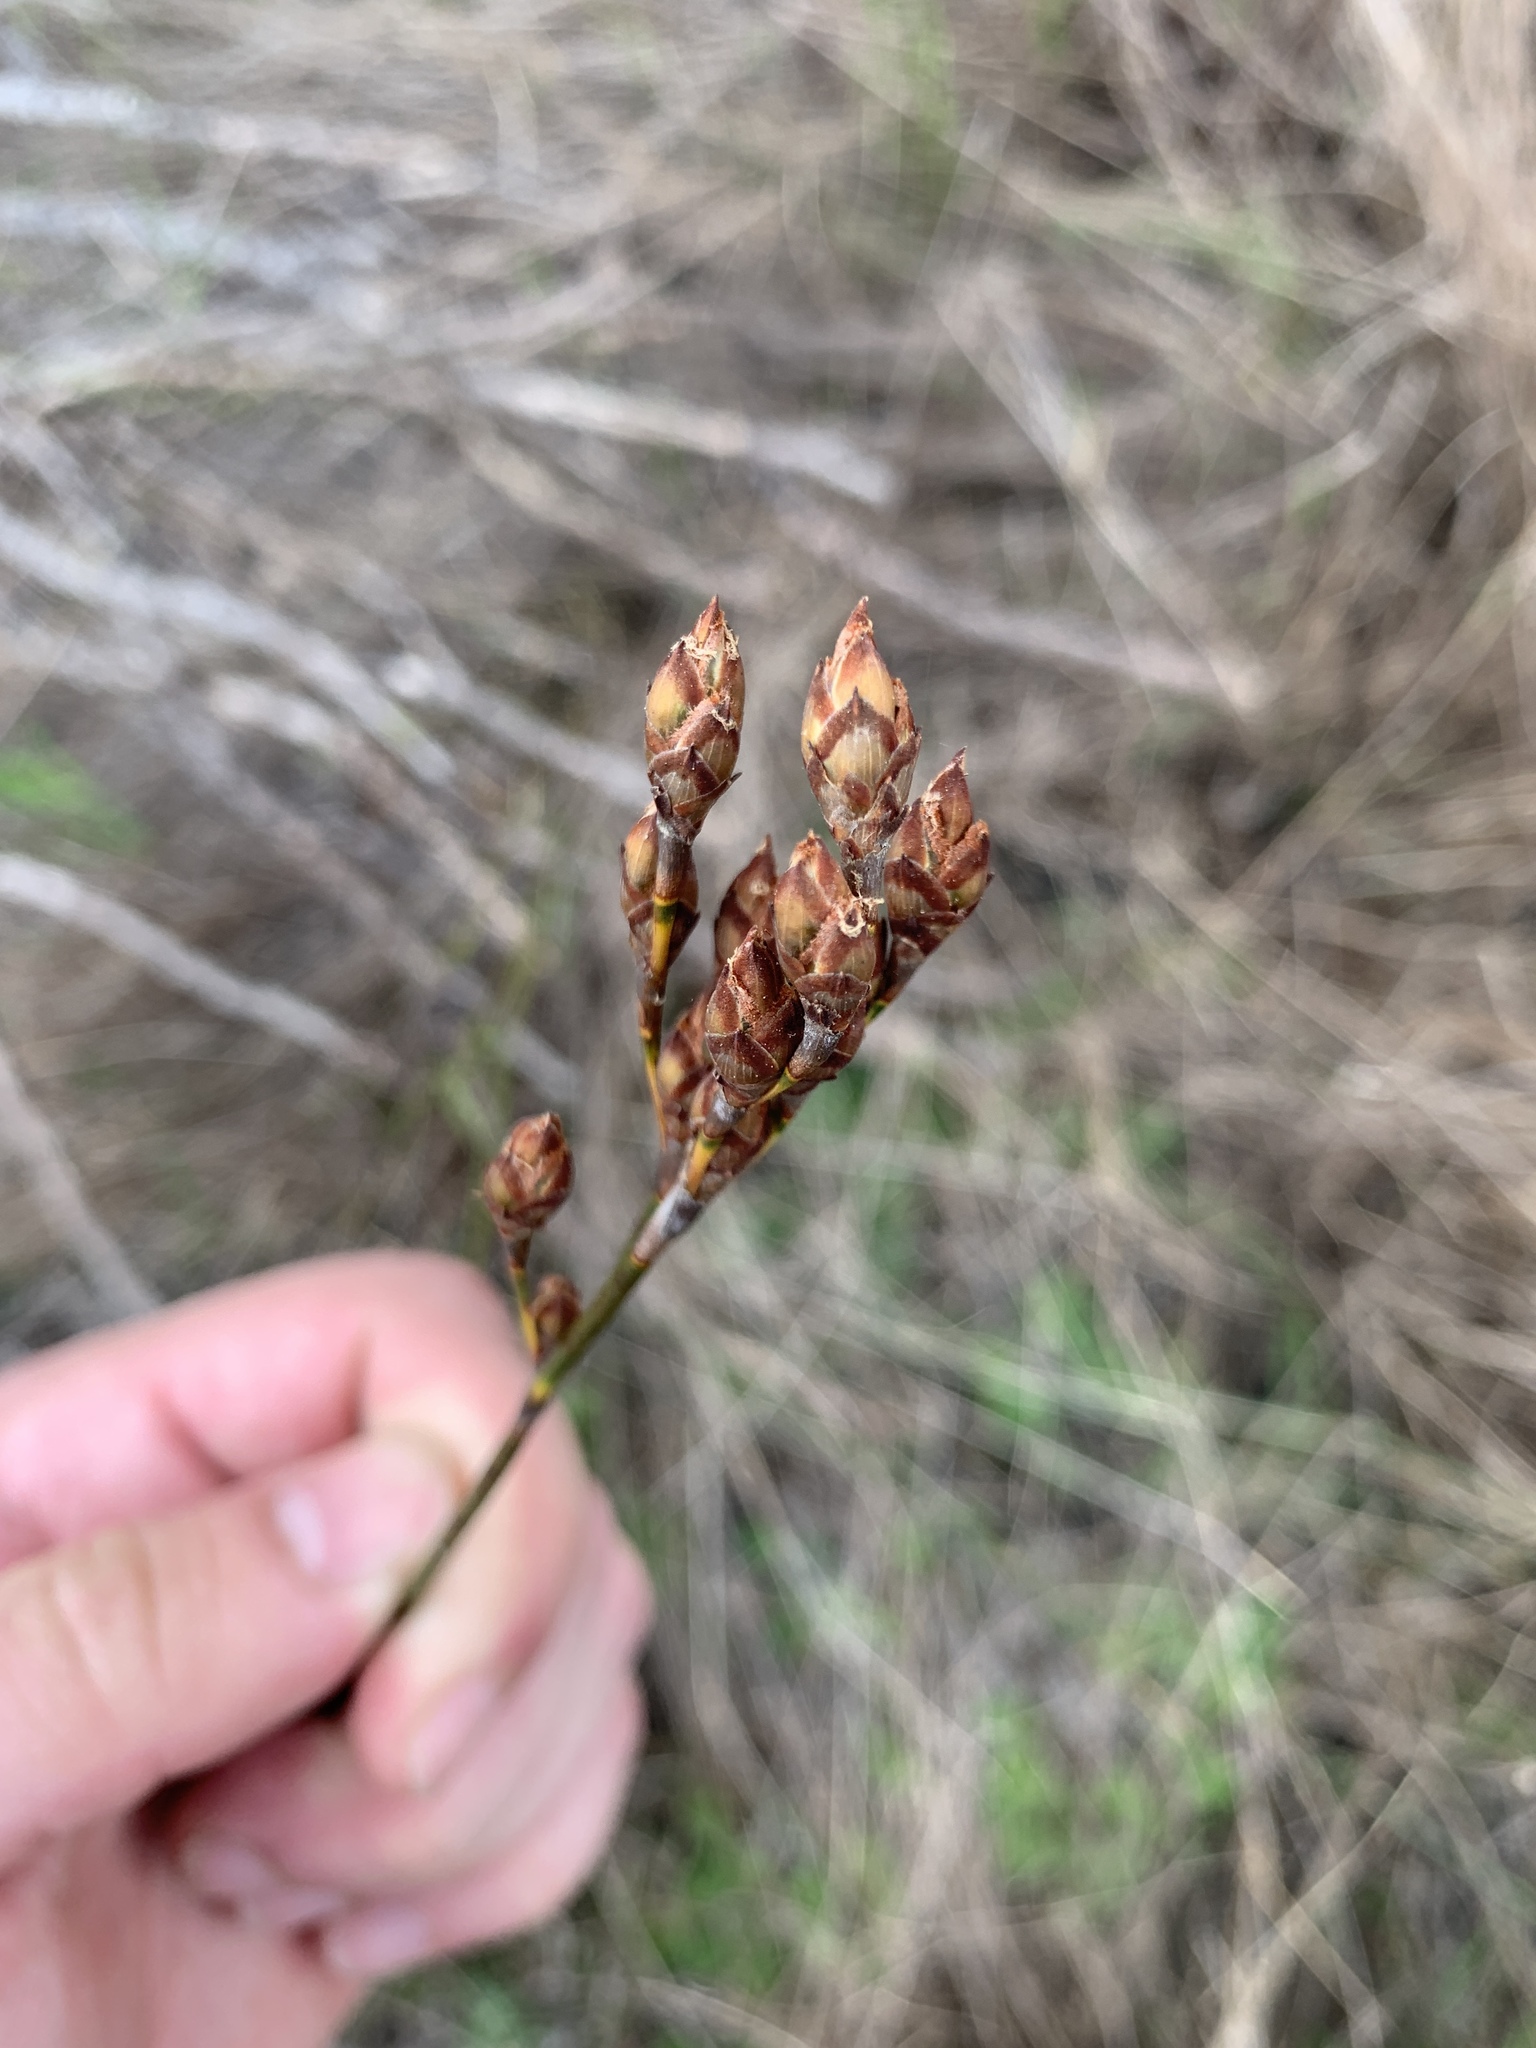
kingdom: Plantae
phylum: Tracheophyta
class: Liliopsida
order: Poales
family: Restionaceae
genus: Restio
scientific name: Restio bifurcus
